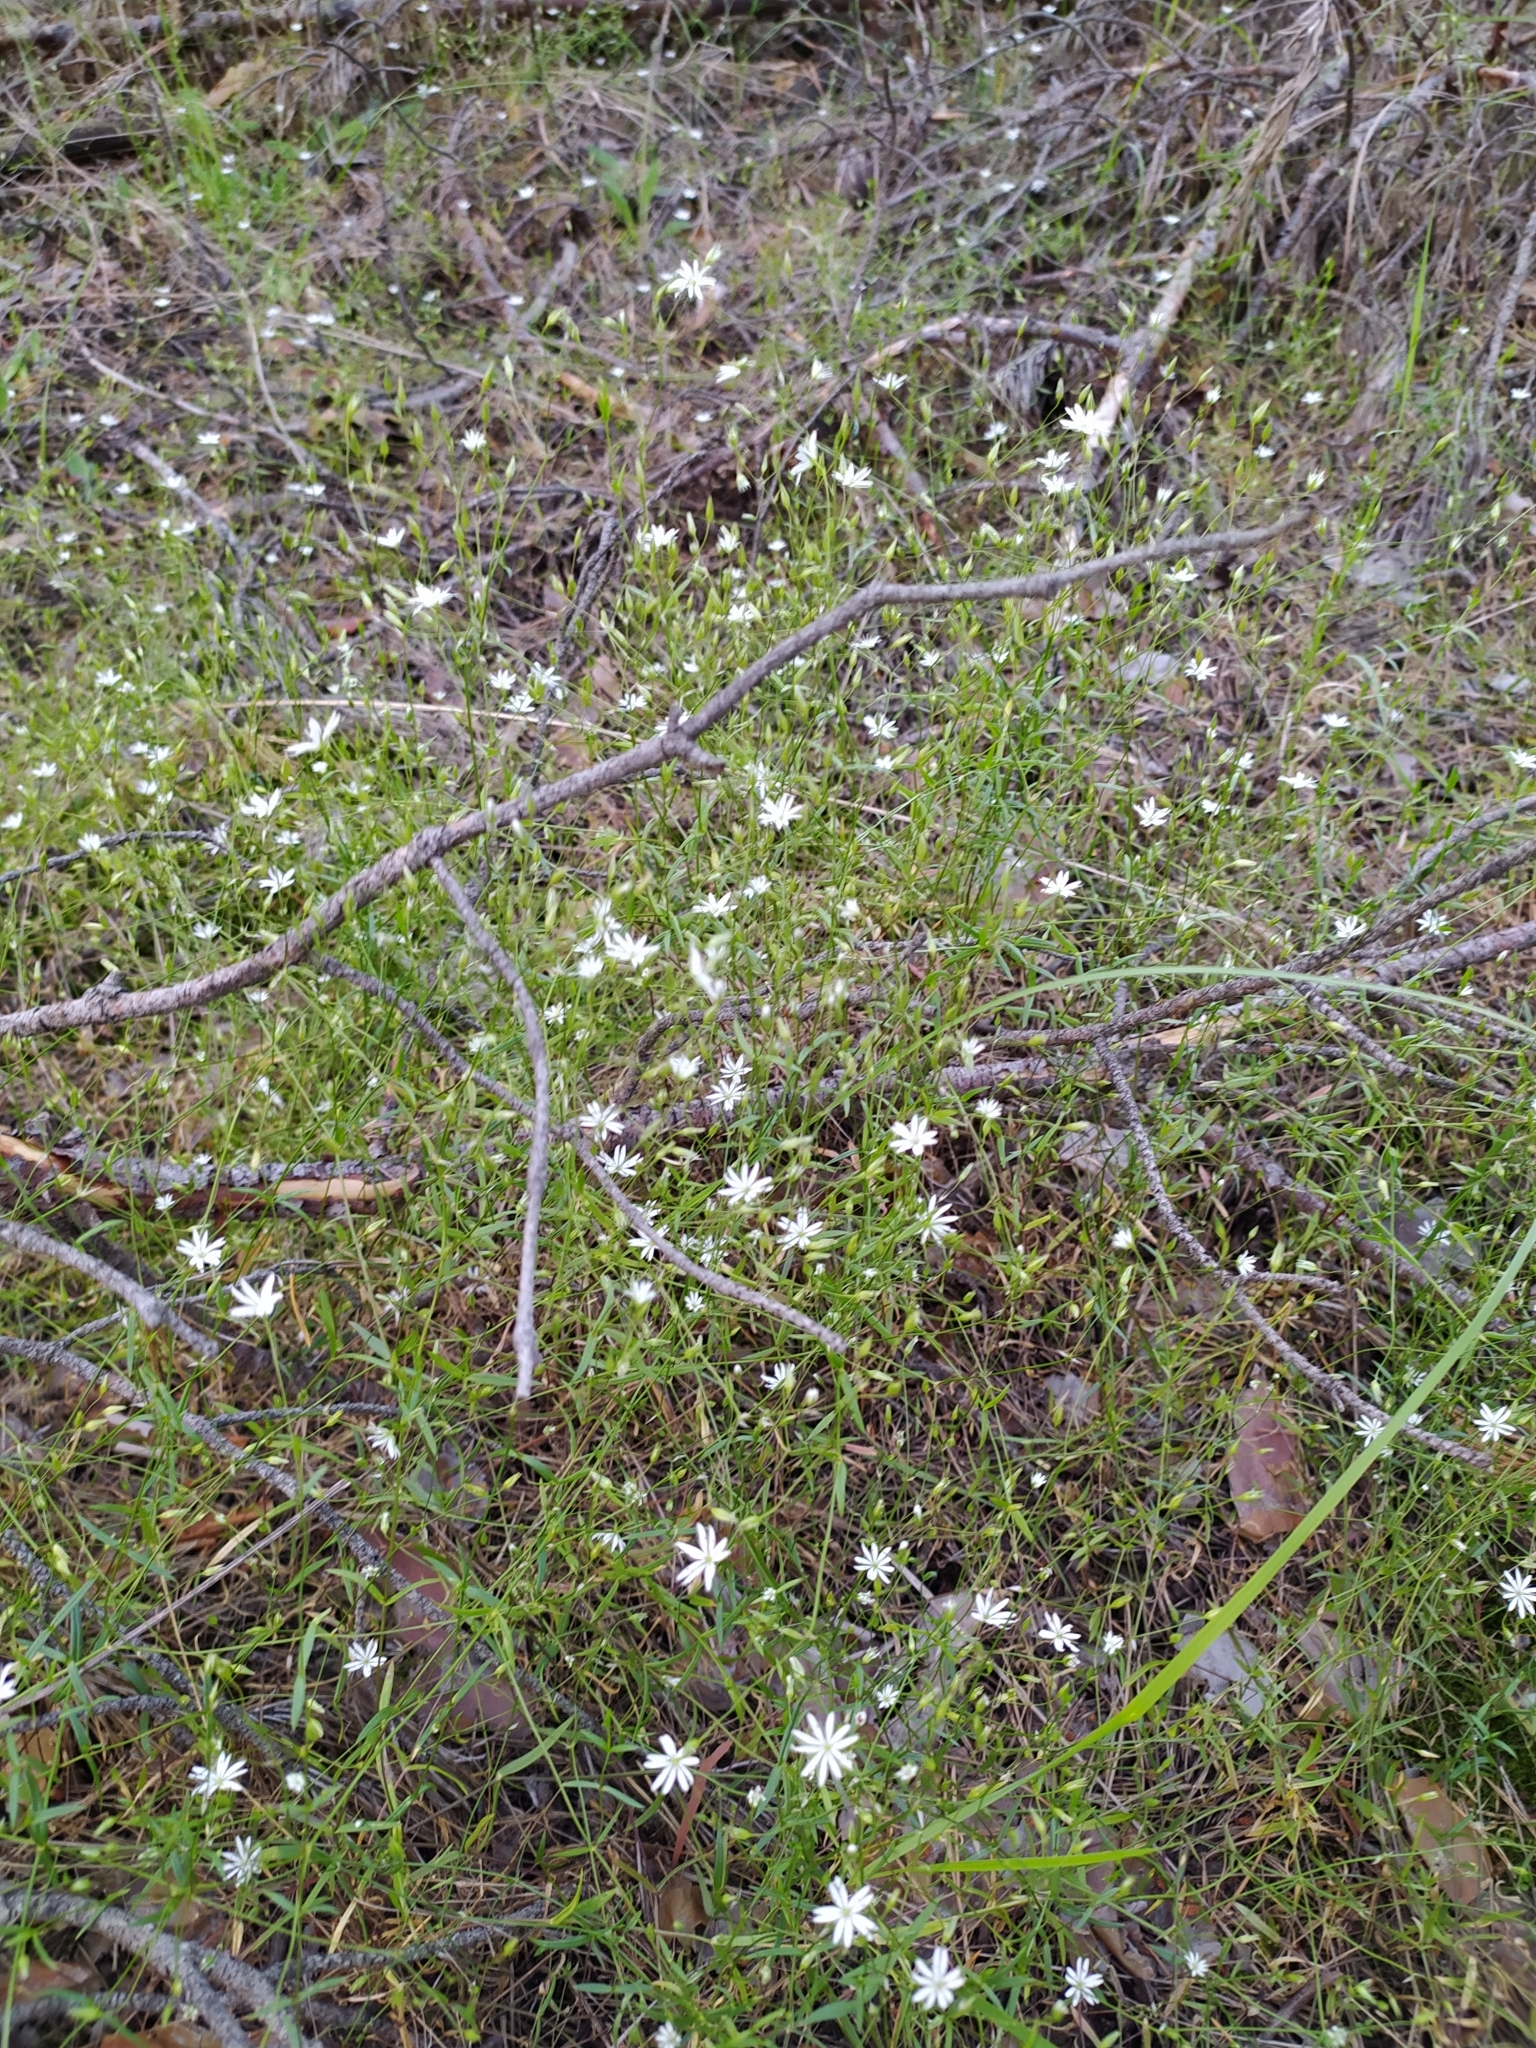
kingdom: Plantae
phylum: Tracheophyta
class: Magnoliopsida
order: Caryophyllales
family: Caryophyllaceae
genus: Stellaria
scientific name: Stellaria graminea
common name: Grass-like starwort
